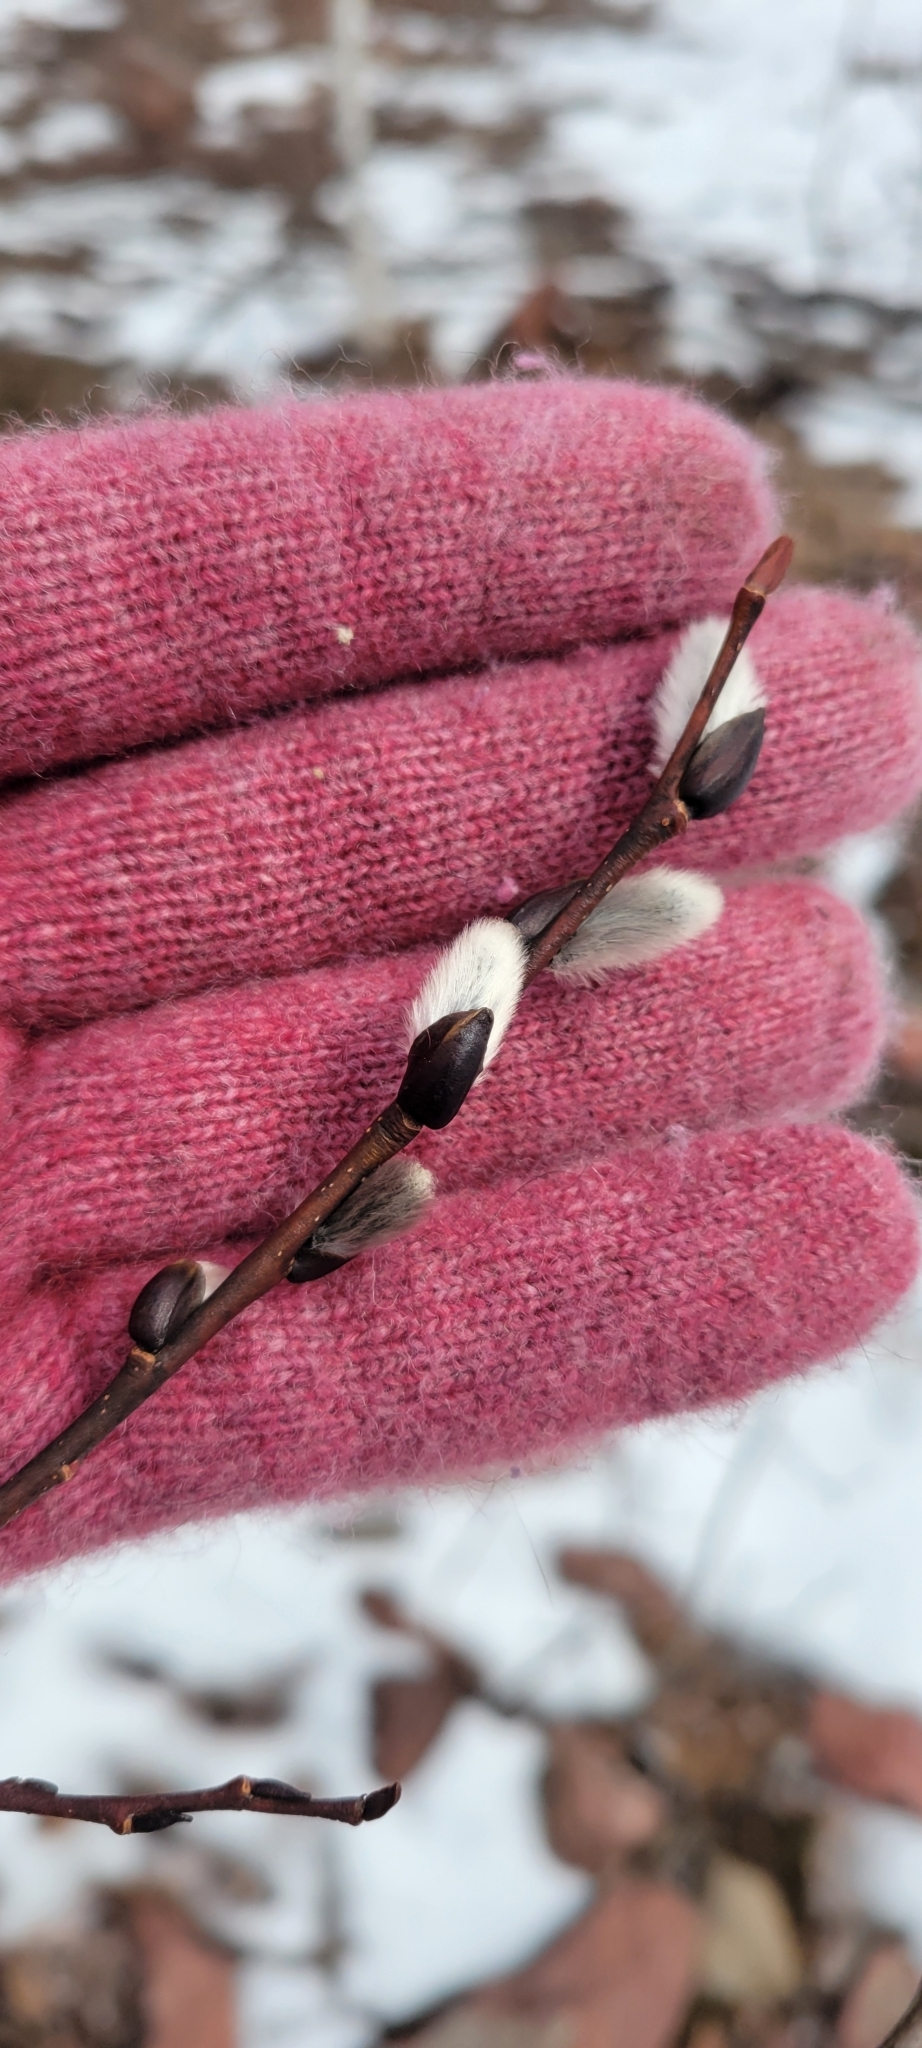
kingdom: Plantae
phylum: Tracheophyta
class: Magnoliopsida
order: Malpighiales
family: Salicaceae
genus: Salix
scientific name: Salix discolor
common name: Glaucous willow
